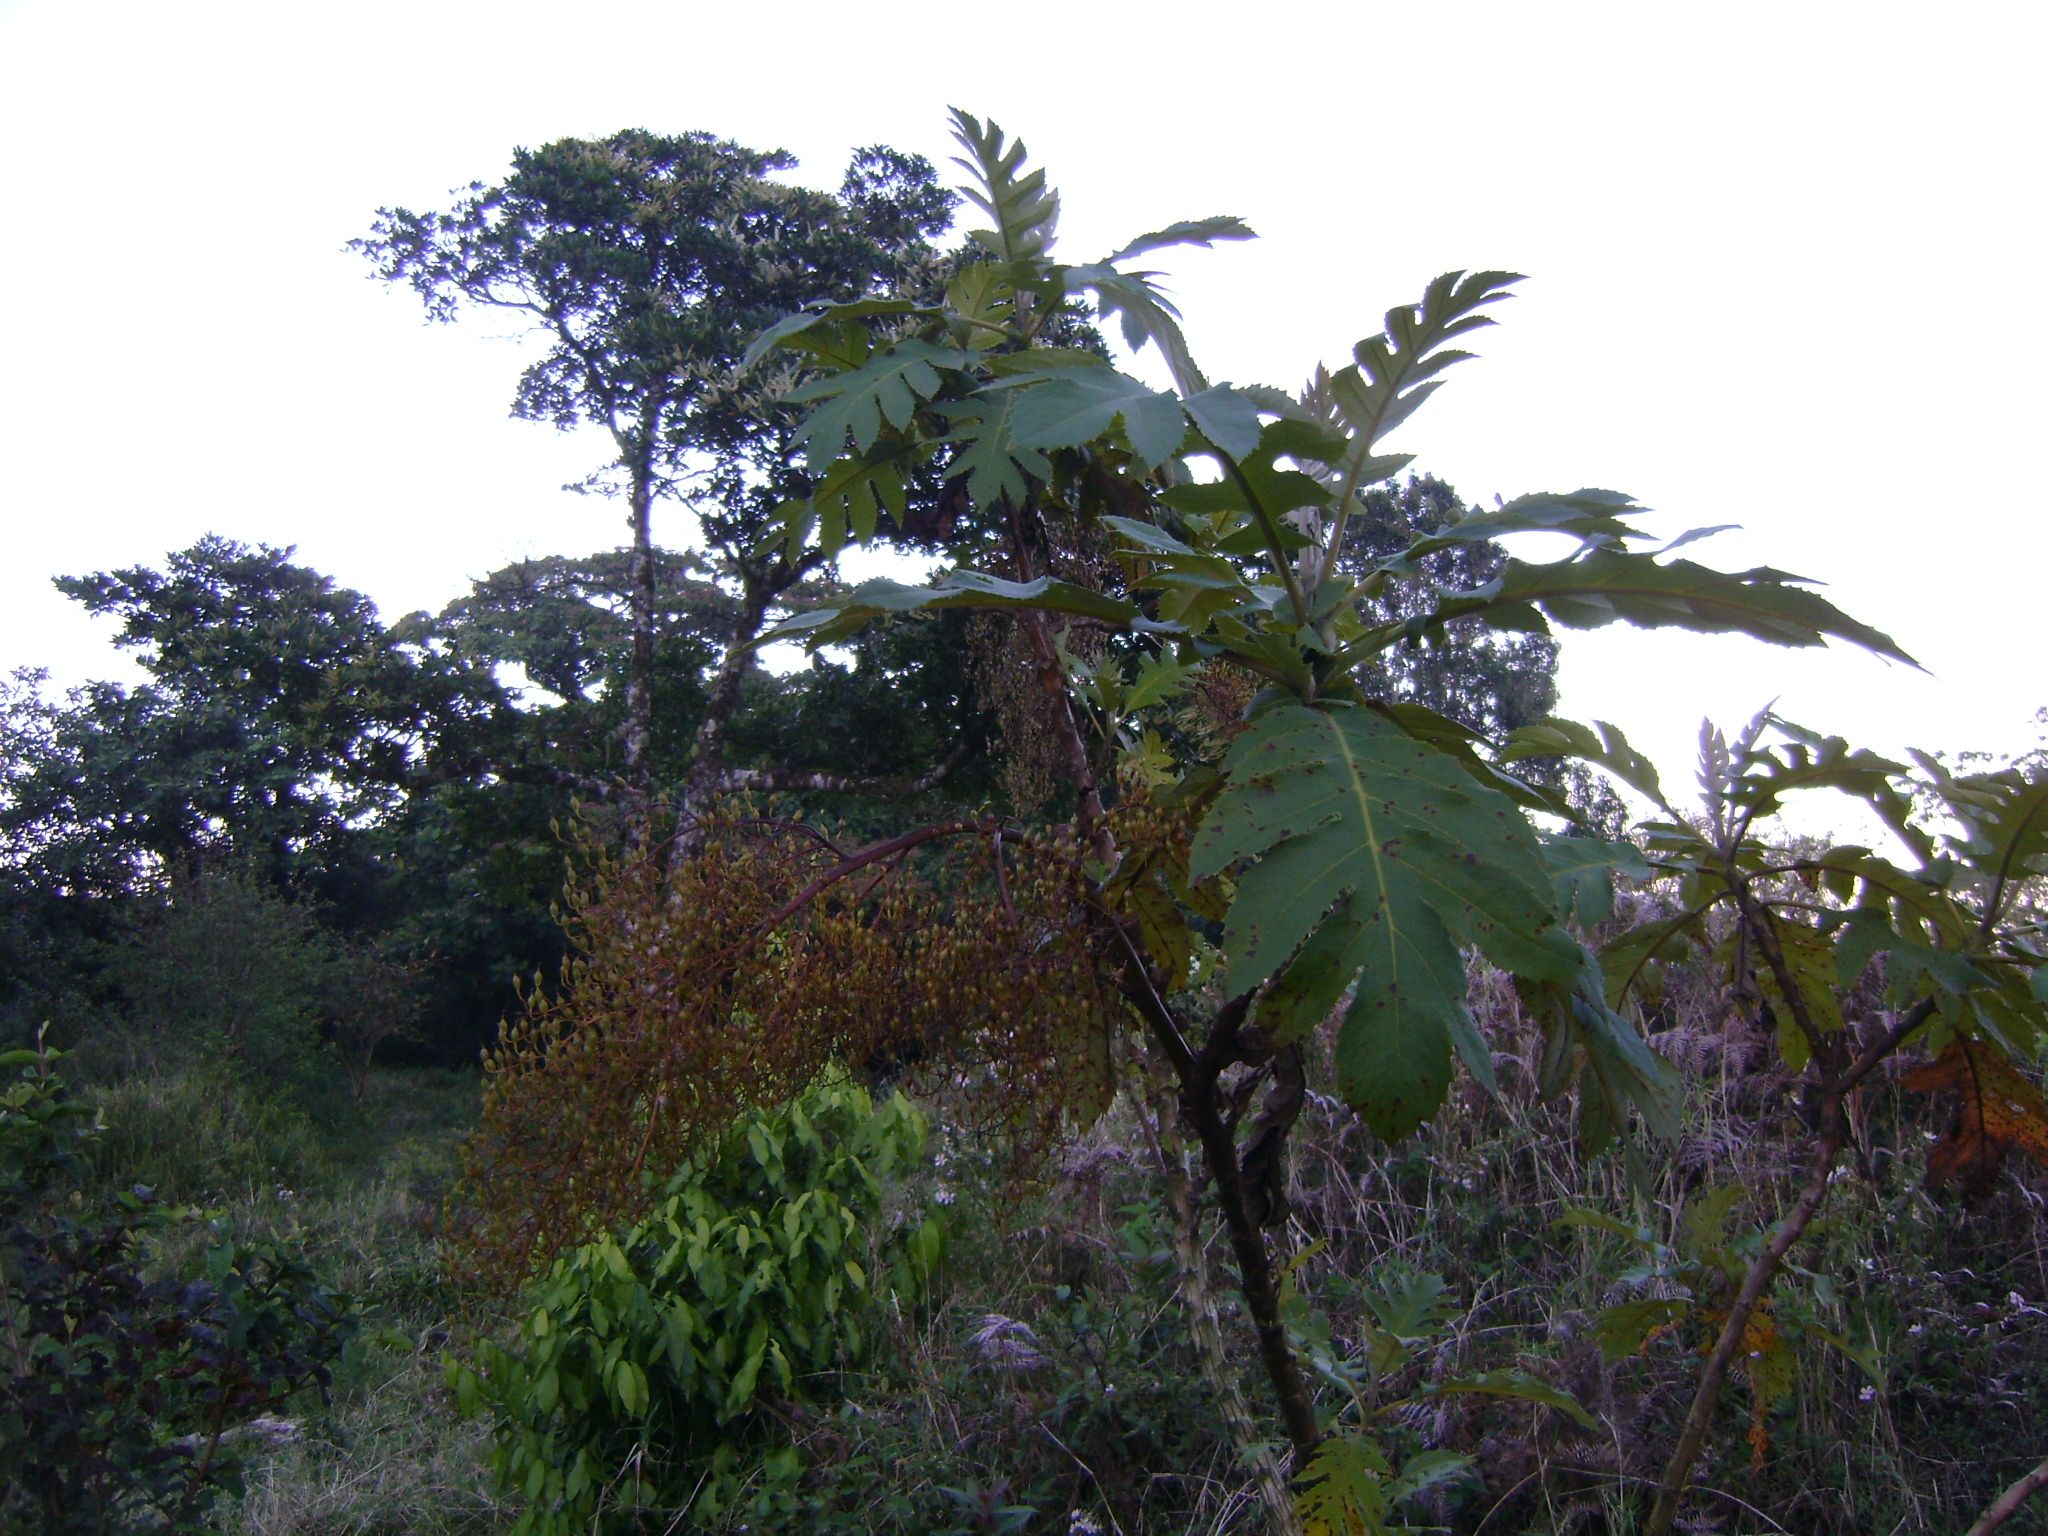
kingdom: Plantae
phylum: Tracheophyta
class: Magnoliopsida
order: Ranunculales
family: Papaveraceae
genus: Bocconia
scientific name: Bocconia frutescens
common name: Tree poppy
